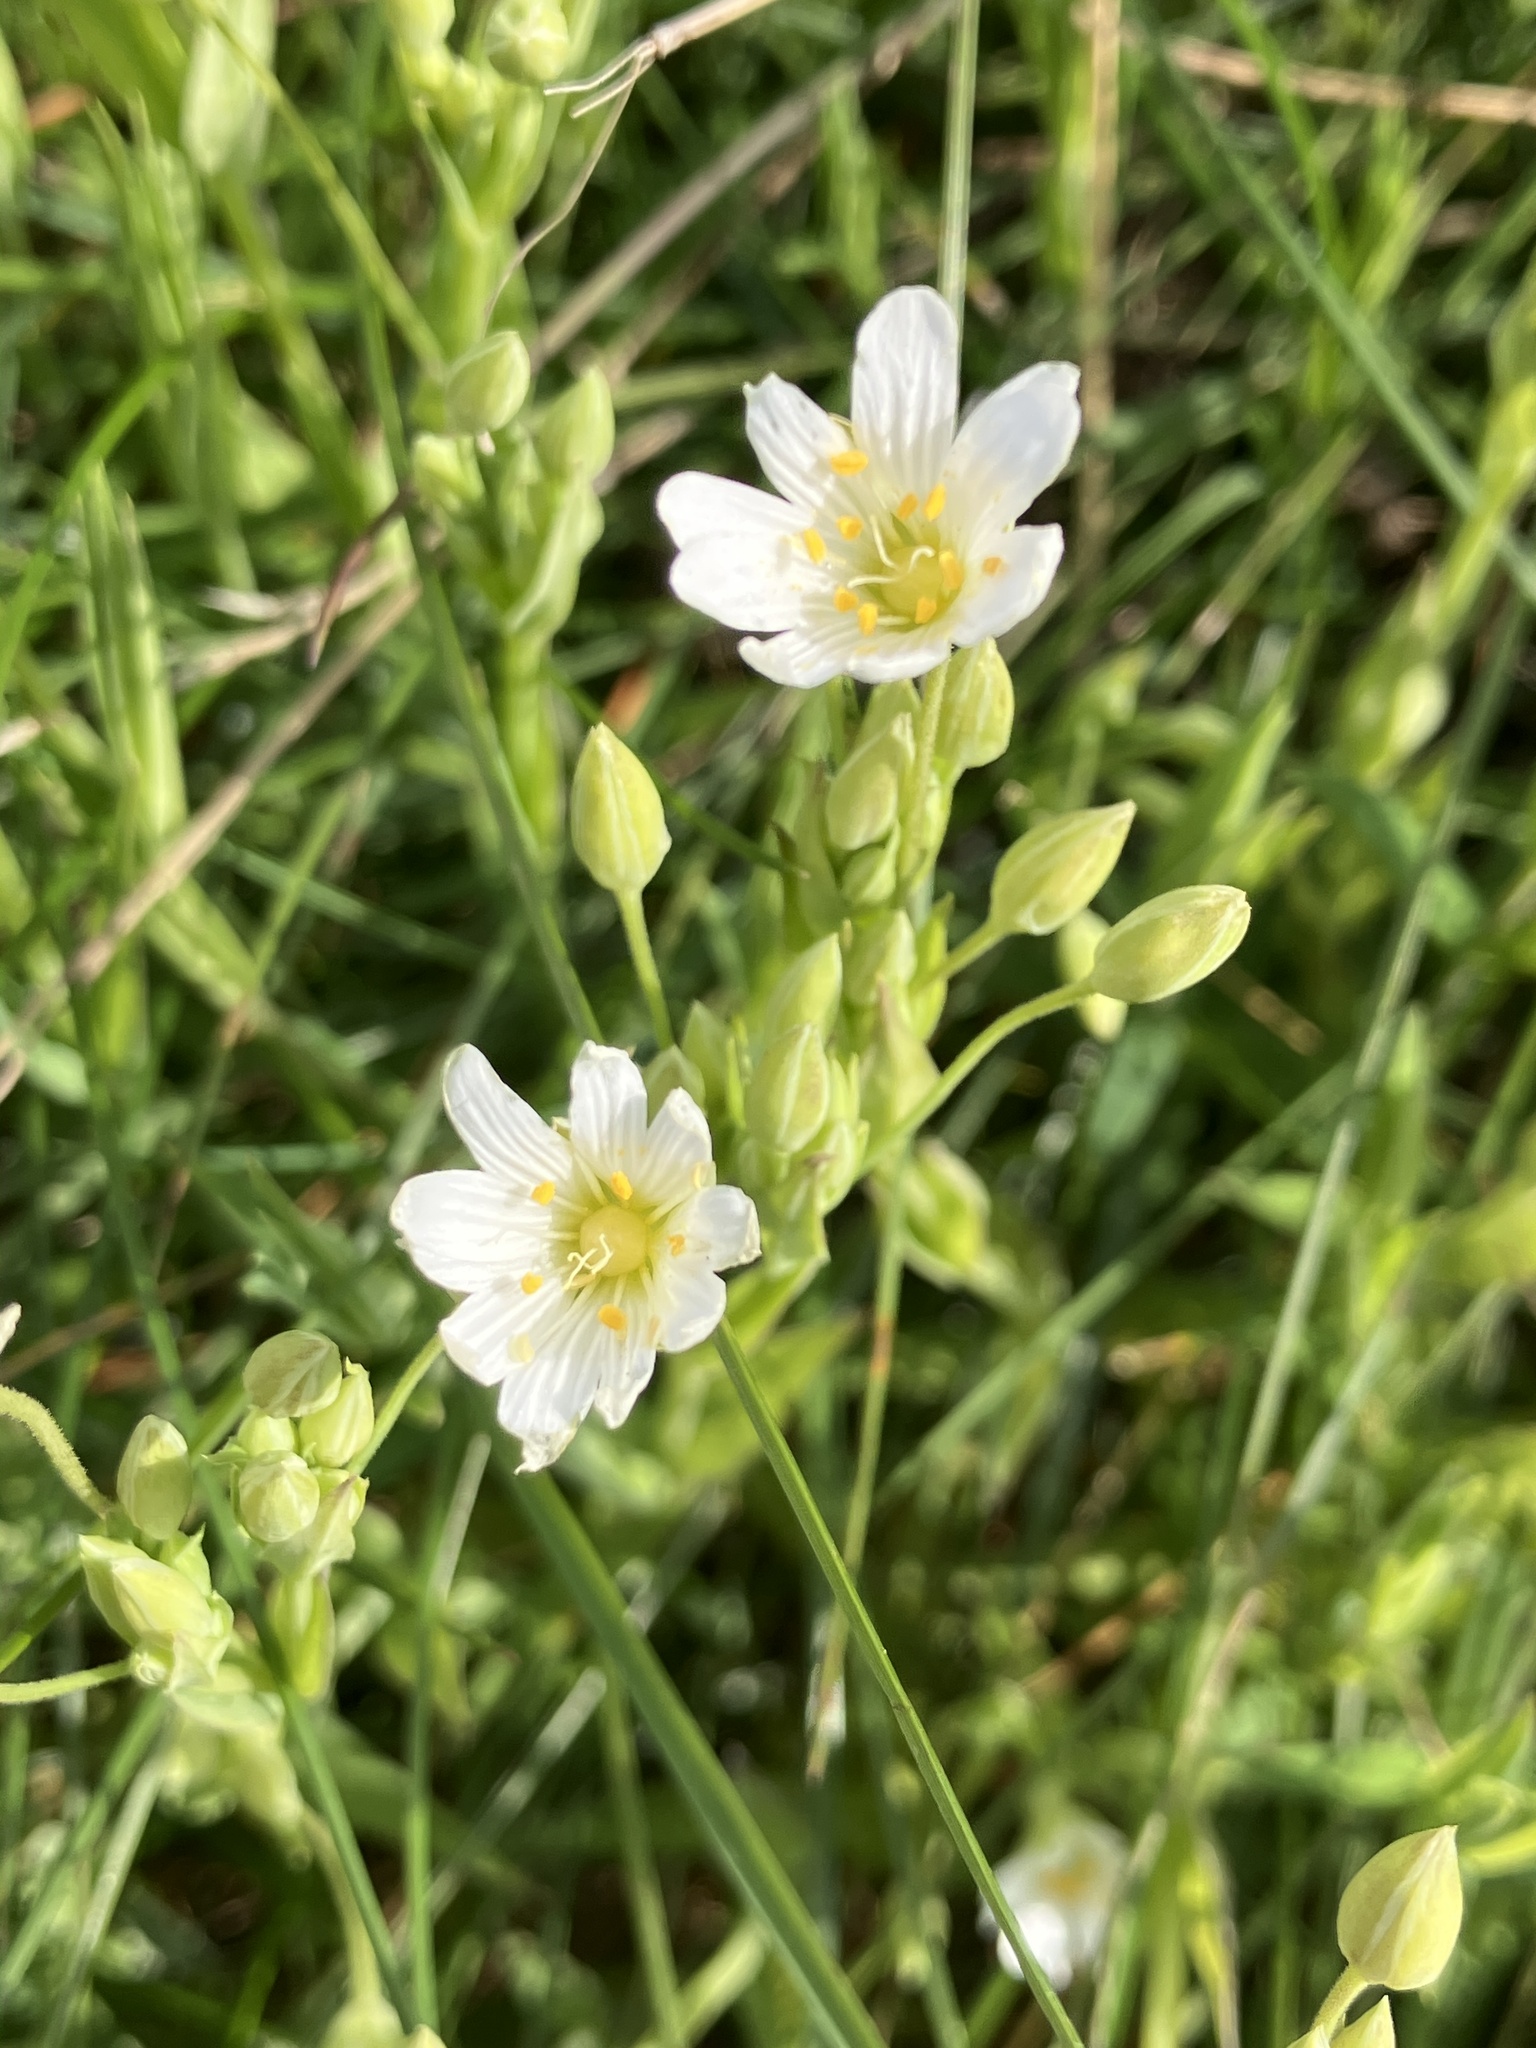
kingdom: Plantae
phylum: Tracheophyta
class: Magnoliopsida
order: Caryophyllales
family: Caryophyllaceae
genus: Rabelera
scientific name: Rabelera holostea
